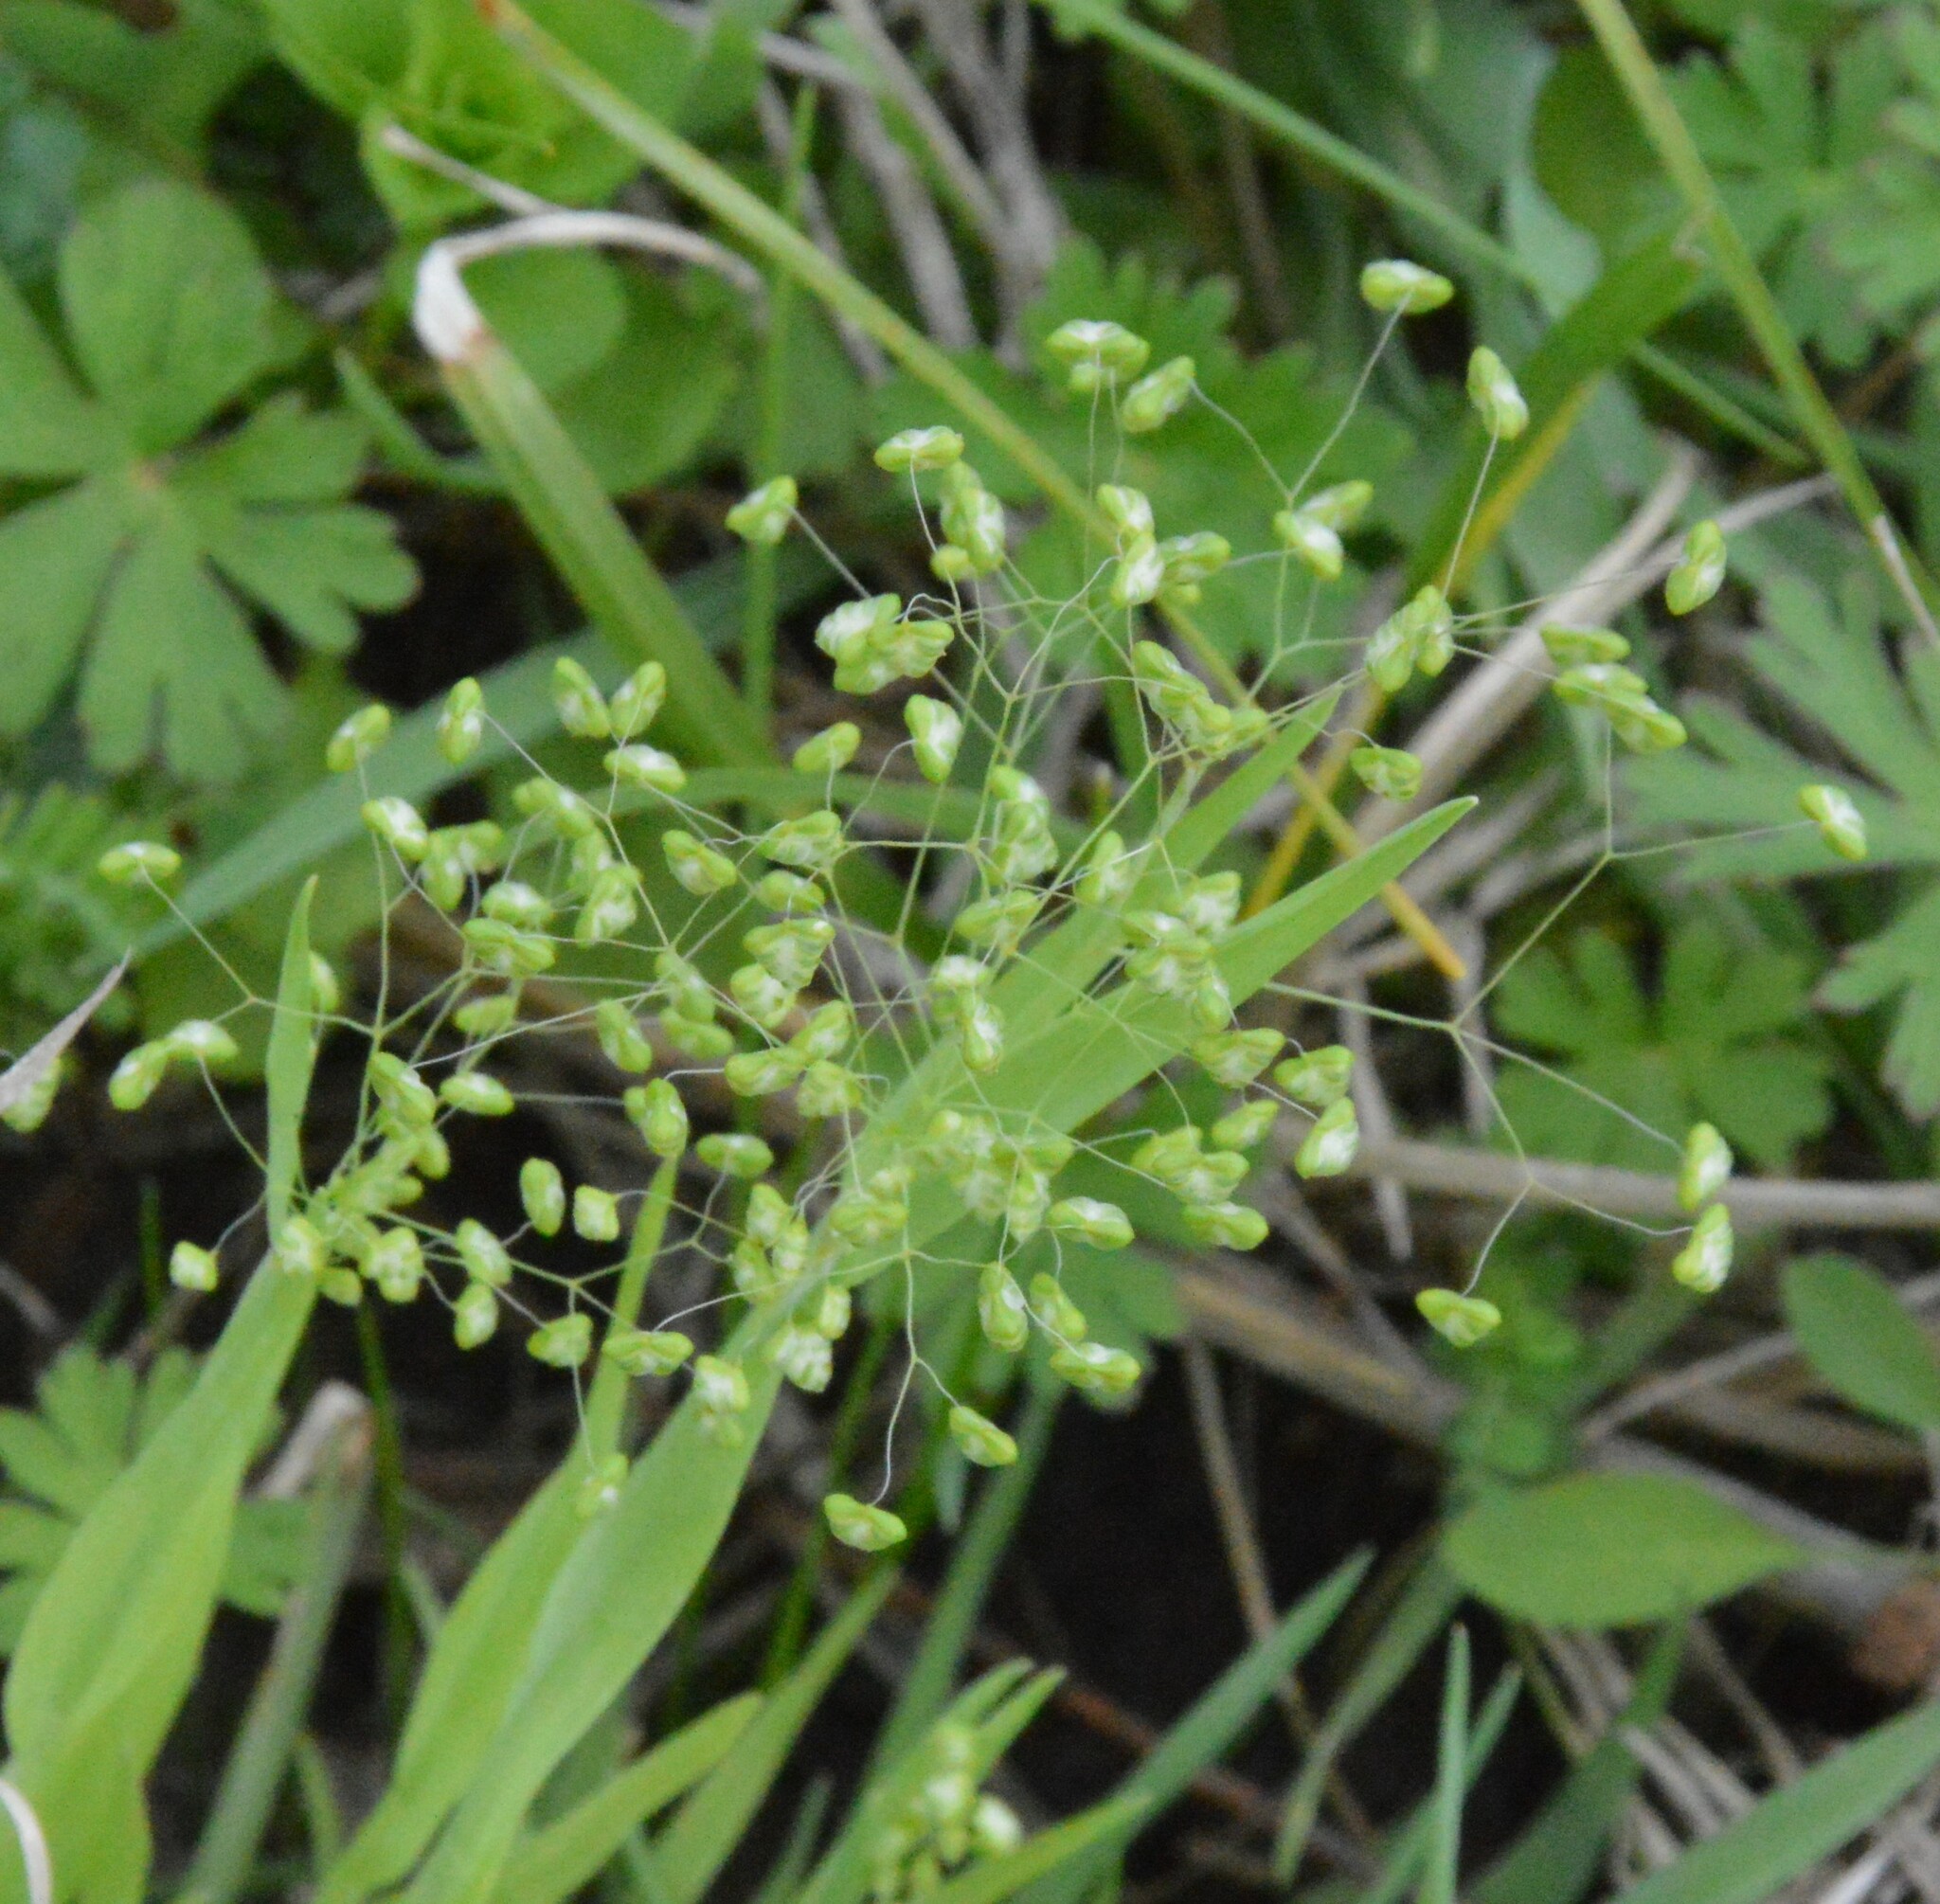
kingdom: Plantae
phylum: Tracheophyta
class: Liliopsida
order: Poales
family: Poaceae
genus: Briza
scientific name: Briza minor
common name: Lesser quaking-grass
